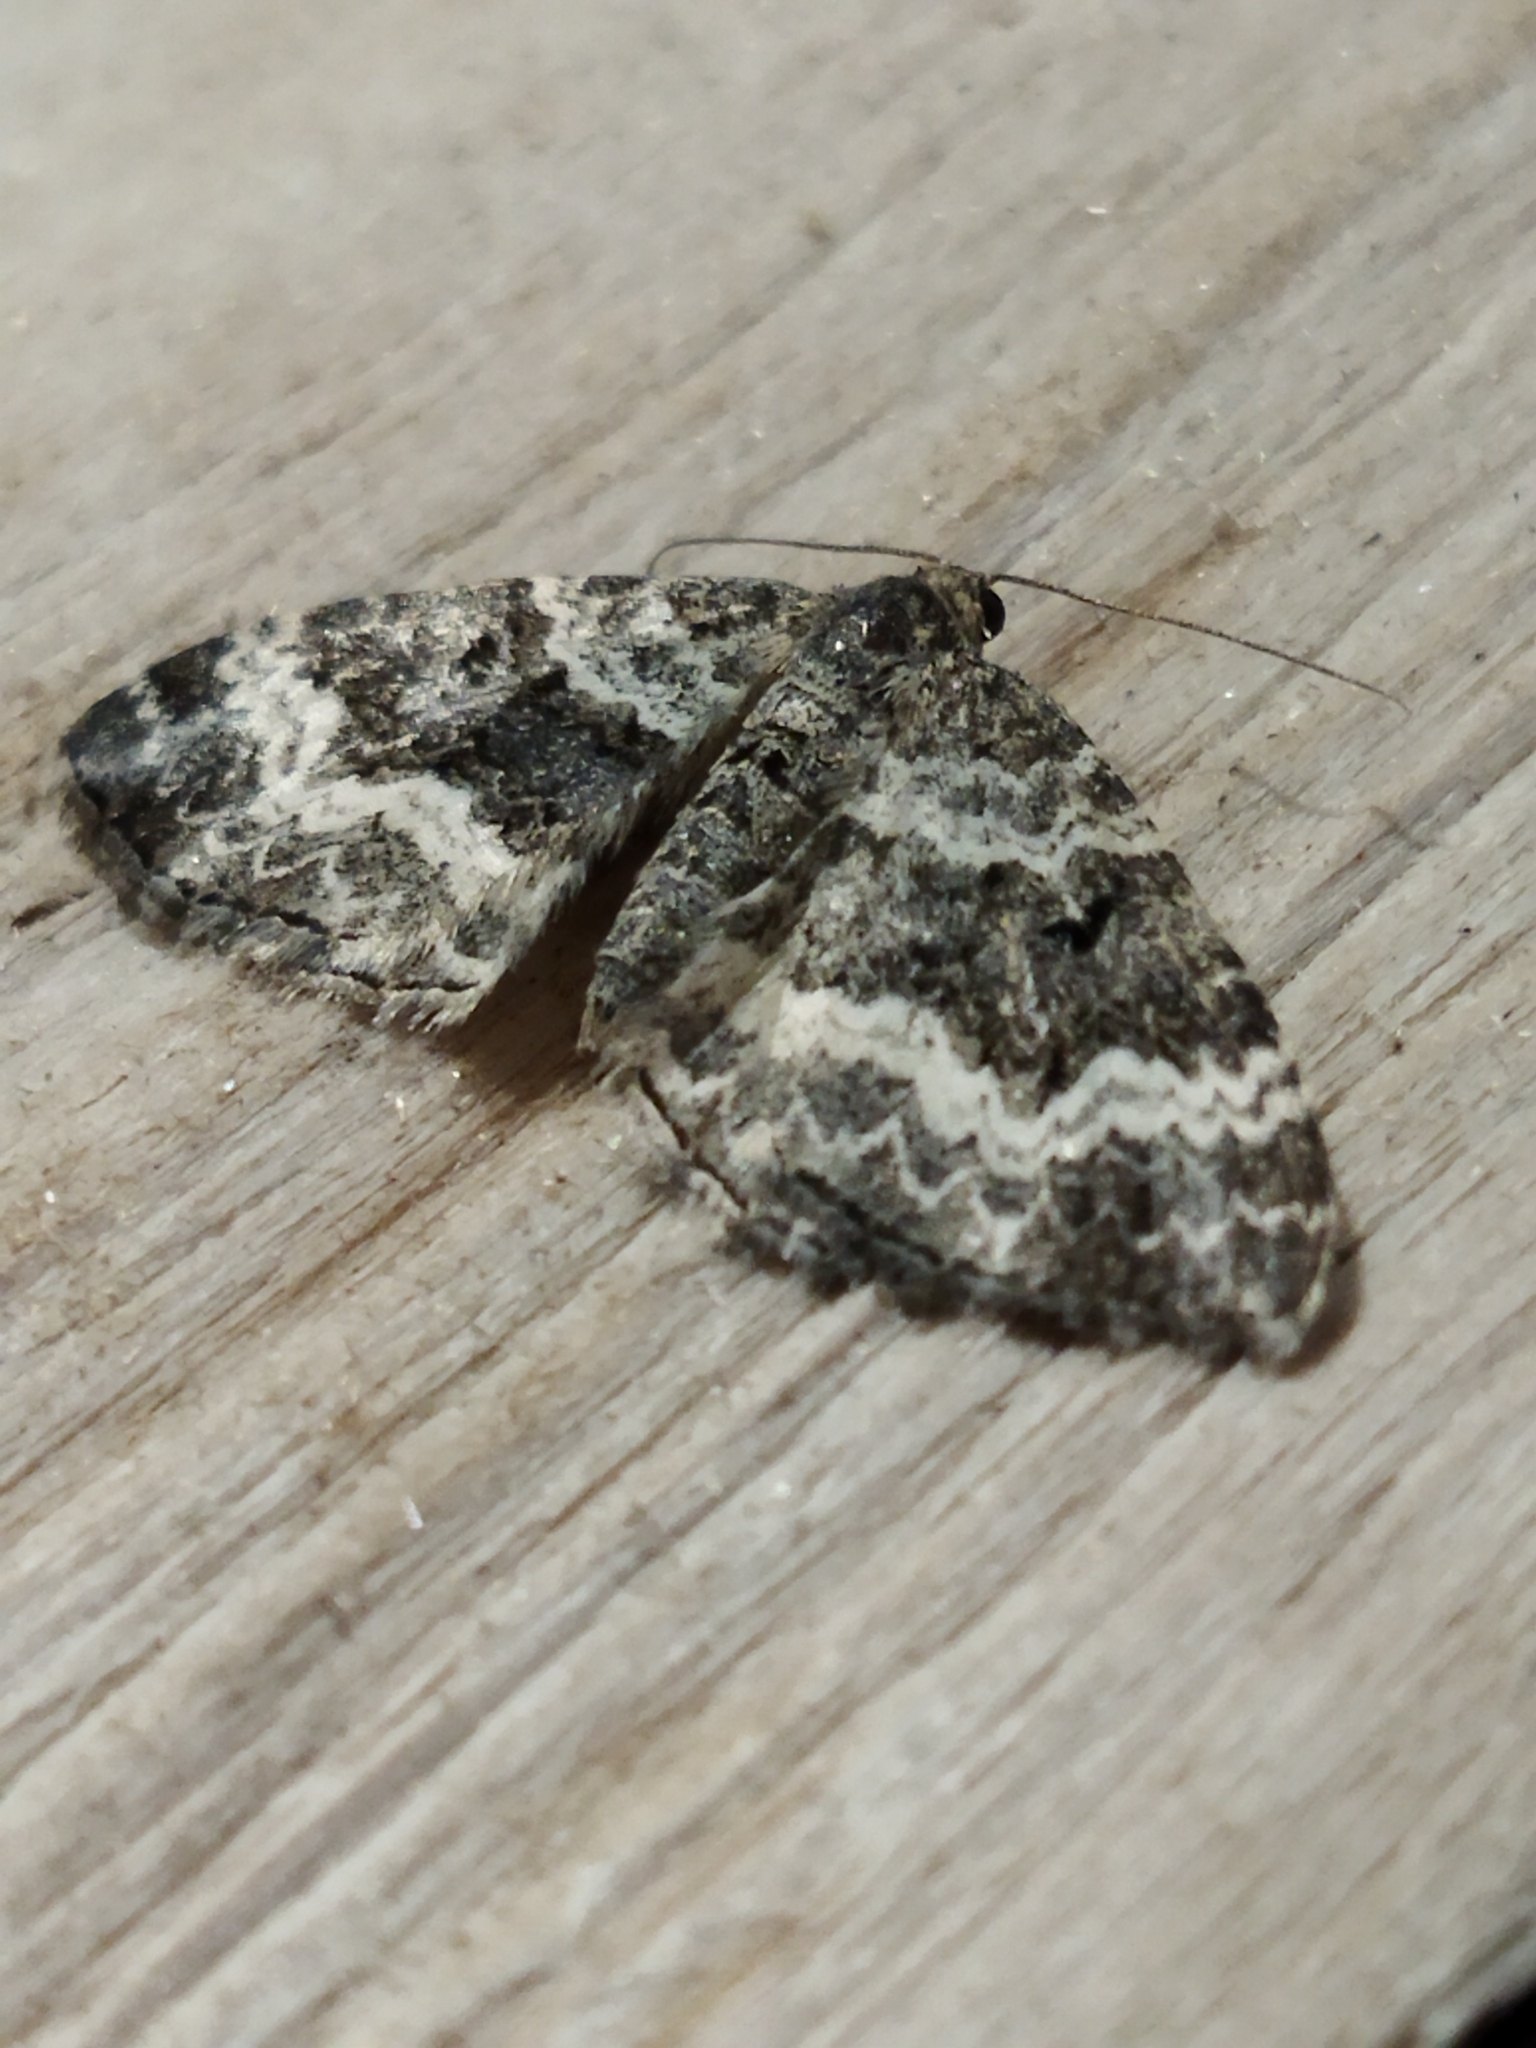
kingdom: Animalia
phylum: Arthropoda
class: Insecta
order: Lepidoptera
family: Geometridae
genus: Epirrhoe
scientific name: Epirrhoe alternata
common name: Common carpet
